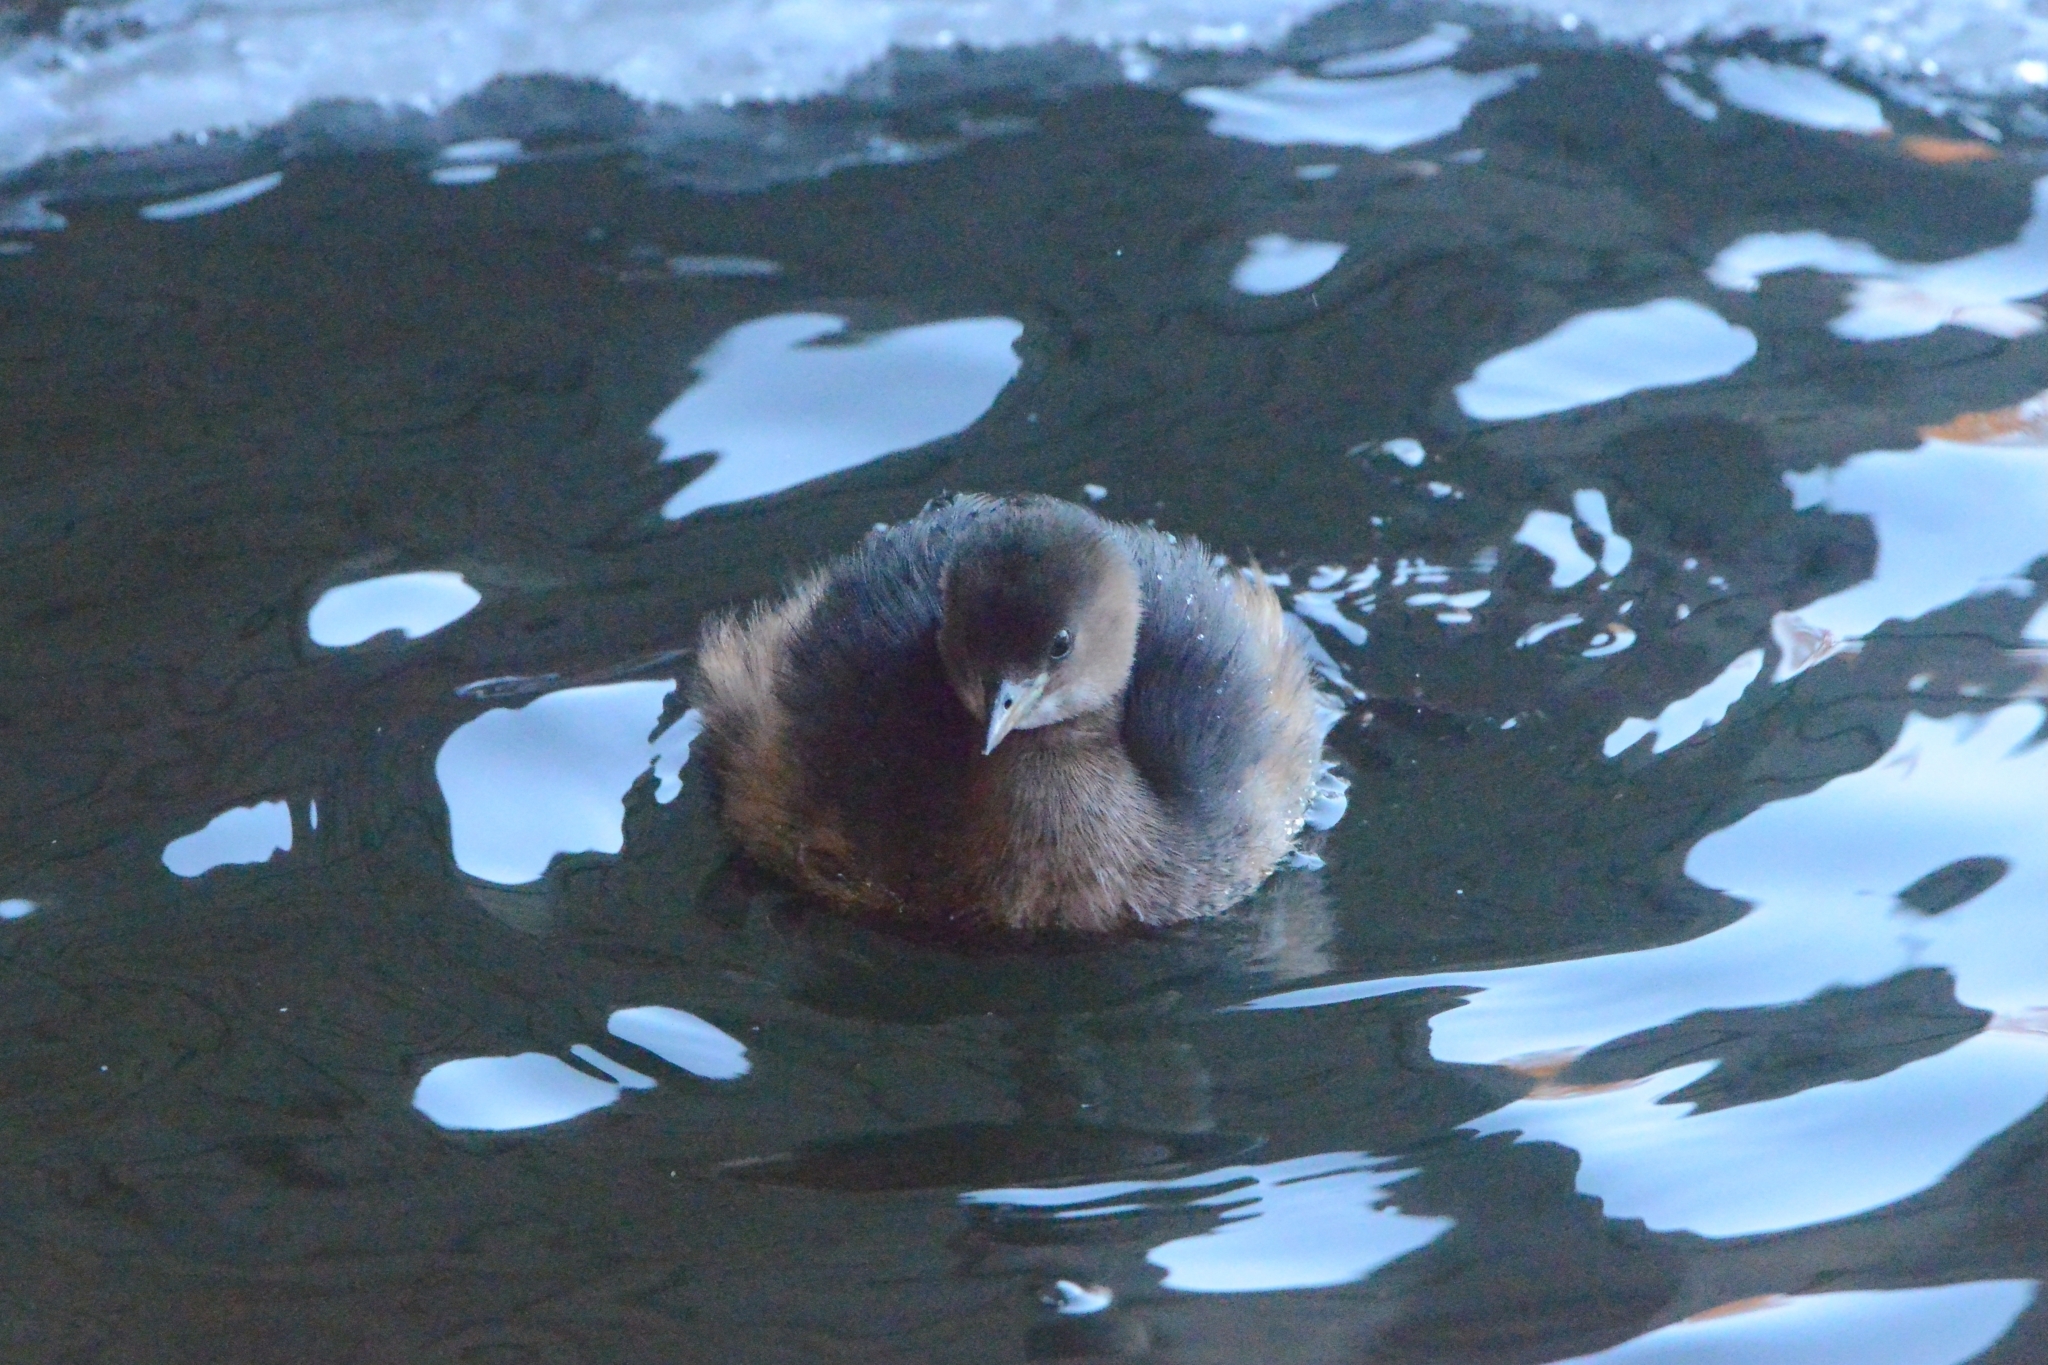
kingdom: Animalia
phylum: Chordata
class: Aves
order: Podicipediformes
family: Podicipedidae
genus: Tachybaptus
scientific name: Tachybaptus ruficollis
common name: Little grebe
